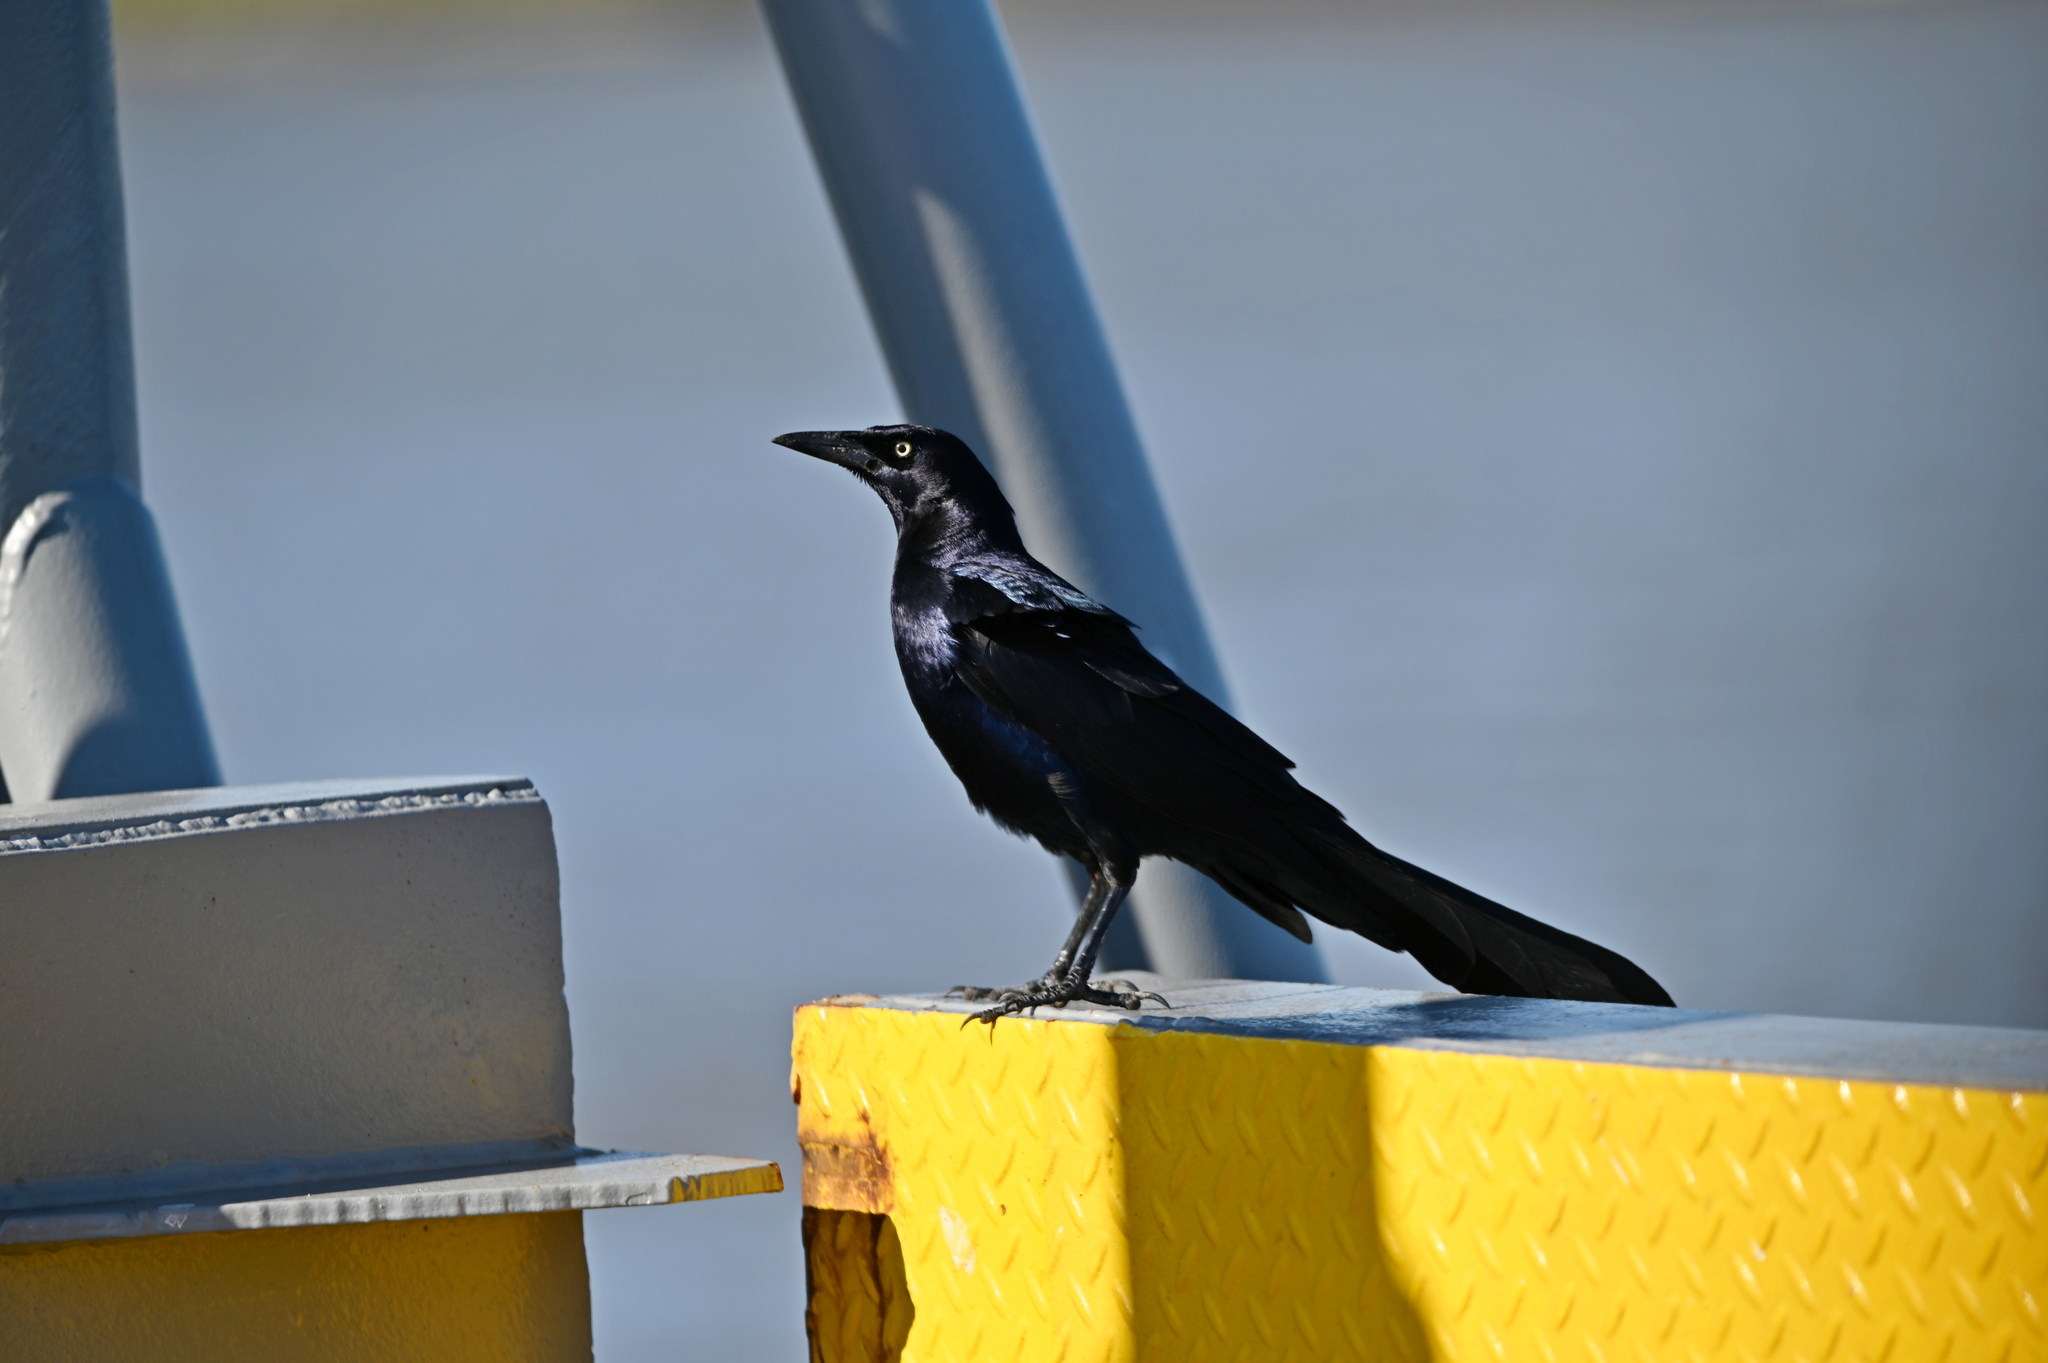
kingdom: Animalia
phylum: Chordata
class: Aves
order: Passeriformes
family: Icteridae
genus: Quiscalus
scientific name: Quiscalus mexicanus
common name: Great-tailed grackle
